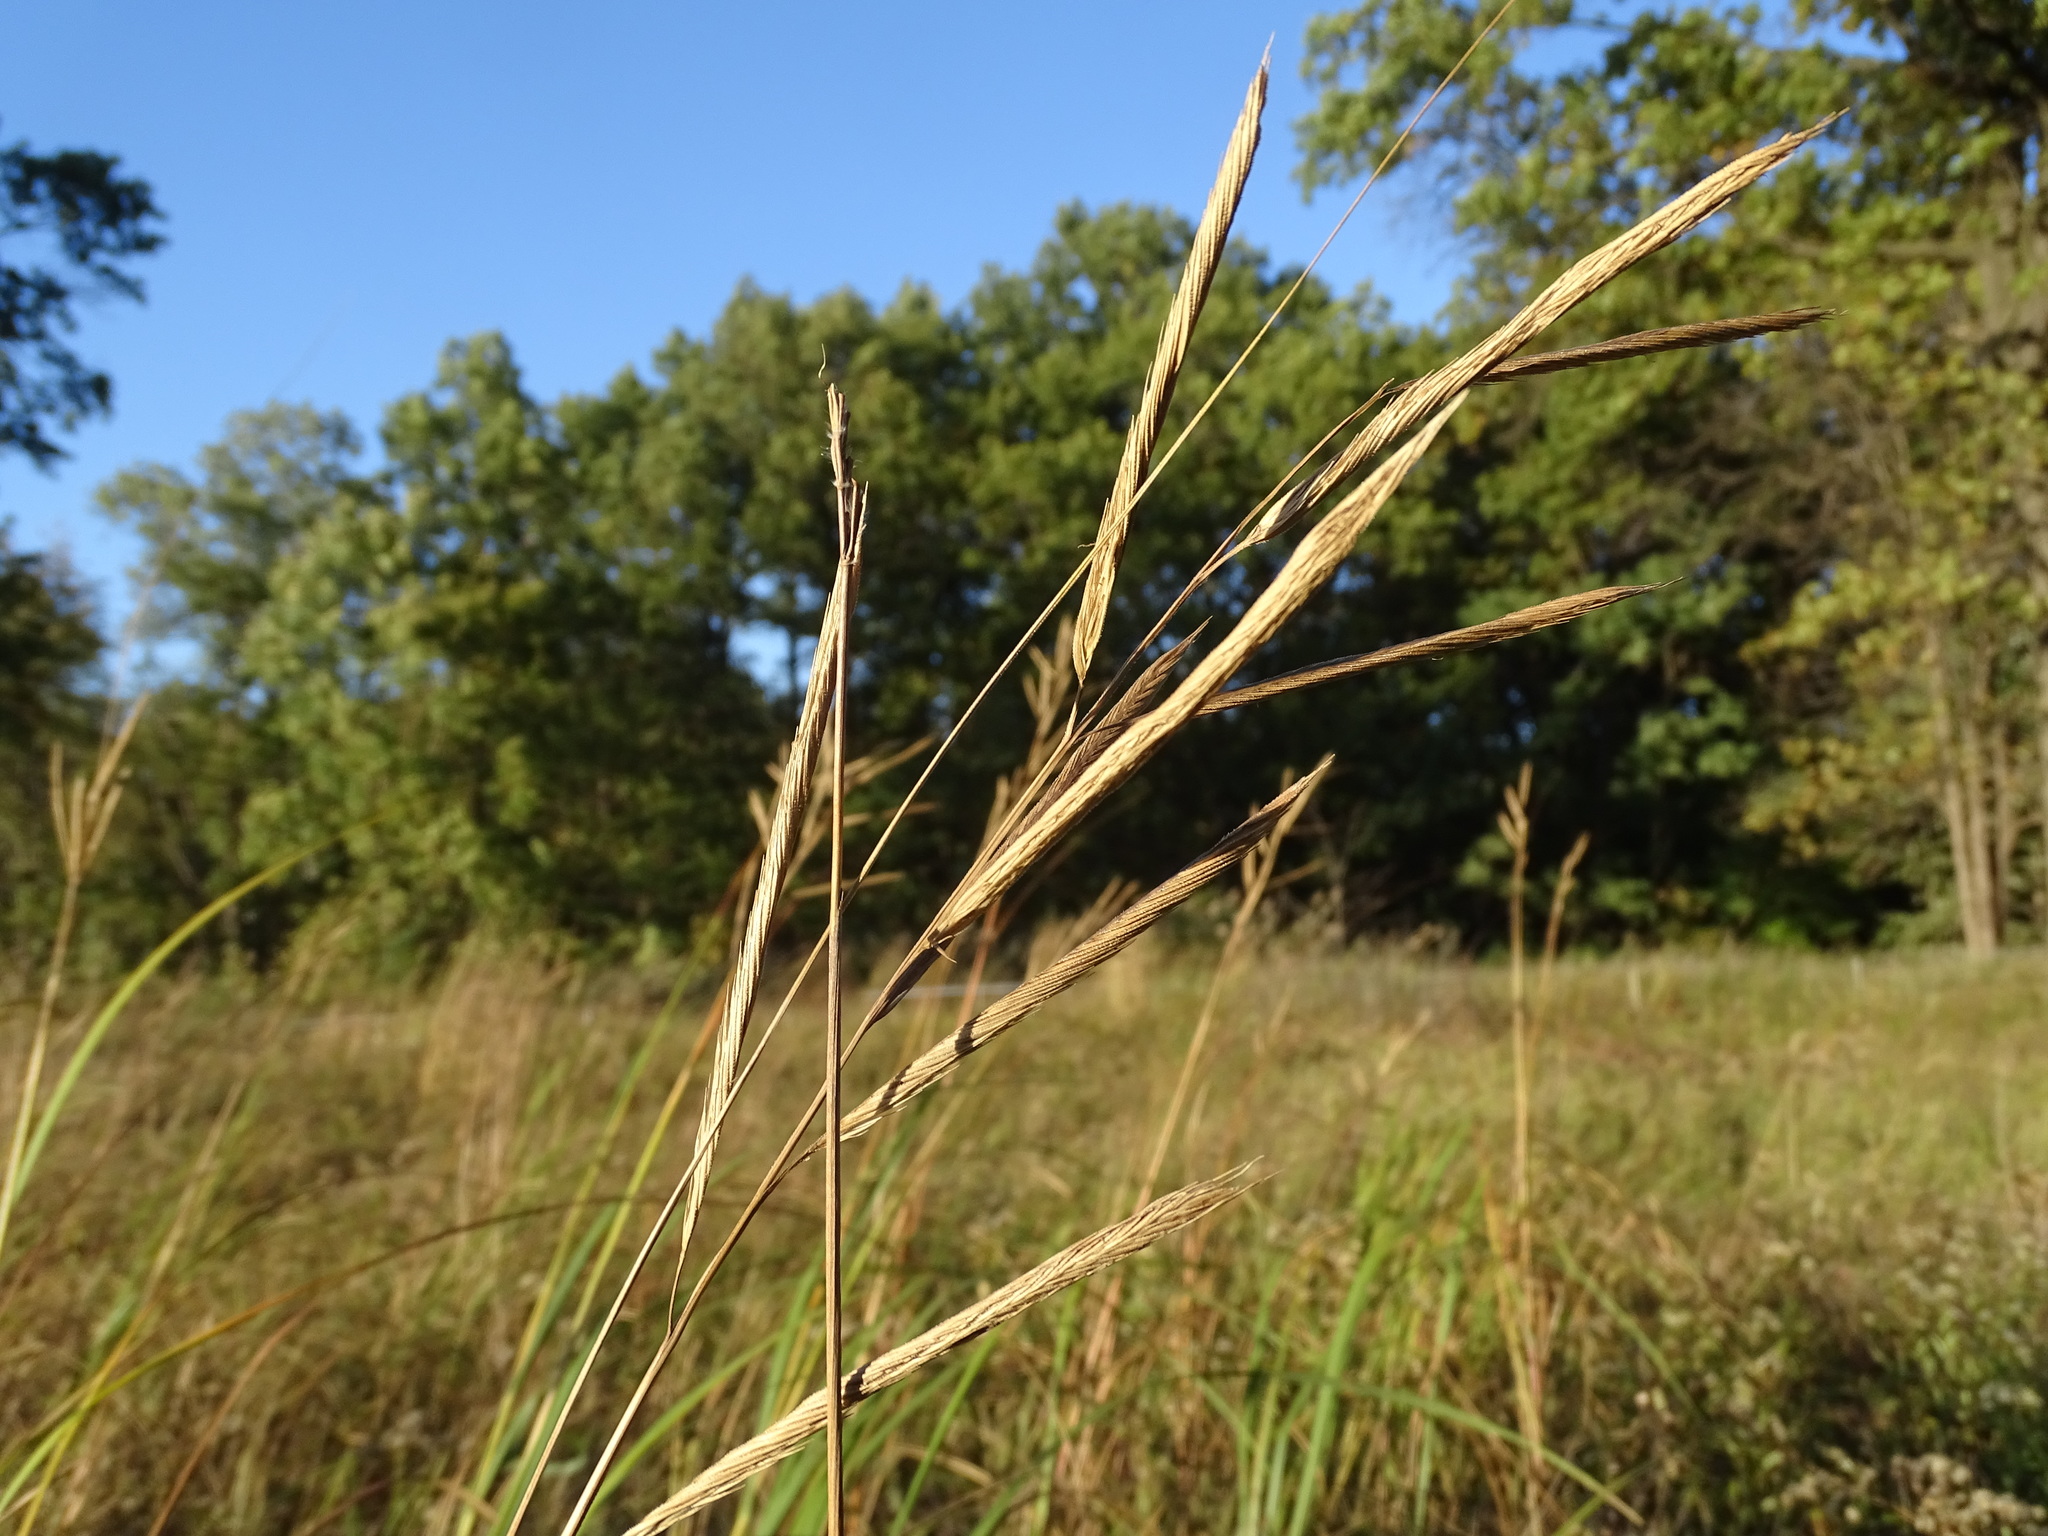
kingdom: Plantae
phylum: Tracheophyta
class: Liliopsida
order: Poales
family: Poaceae
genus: Sporobolus
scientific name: Sporobolus michauxianus
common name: Freshwater cordgrass
